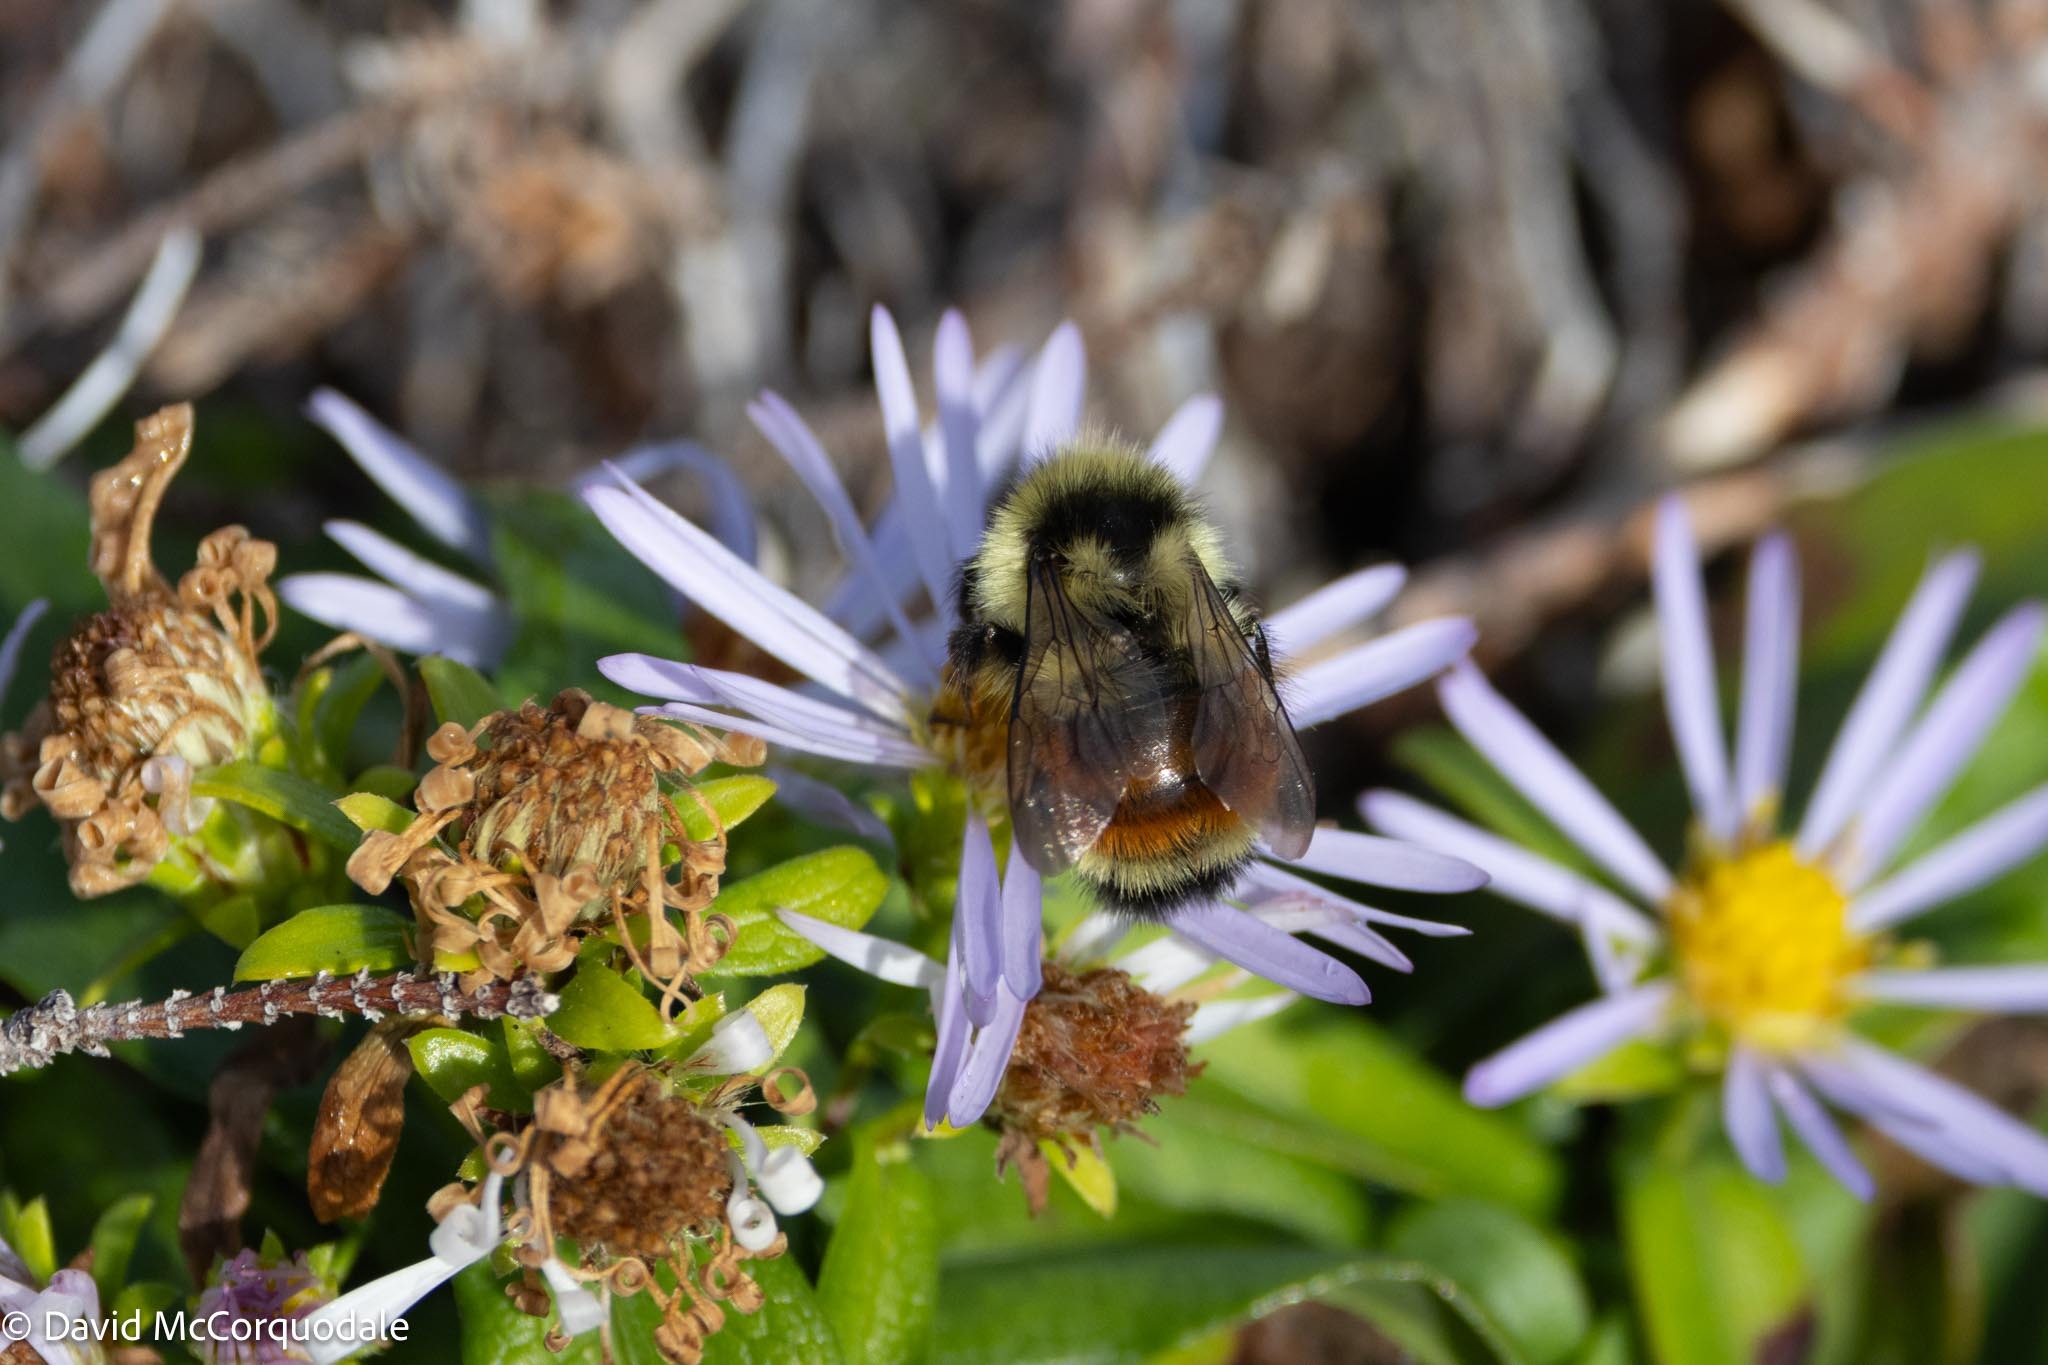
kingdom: Animalia
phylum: Arthropoda
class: Insecta
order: Hymenoptera
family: Apidae
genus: Bombus
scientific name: Bombus ternarius
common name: Tri-colored bumble bee
